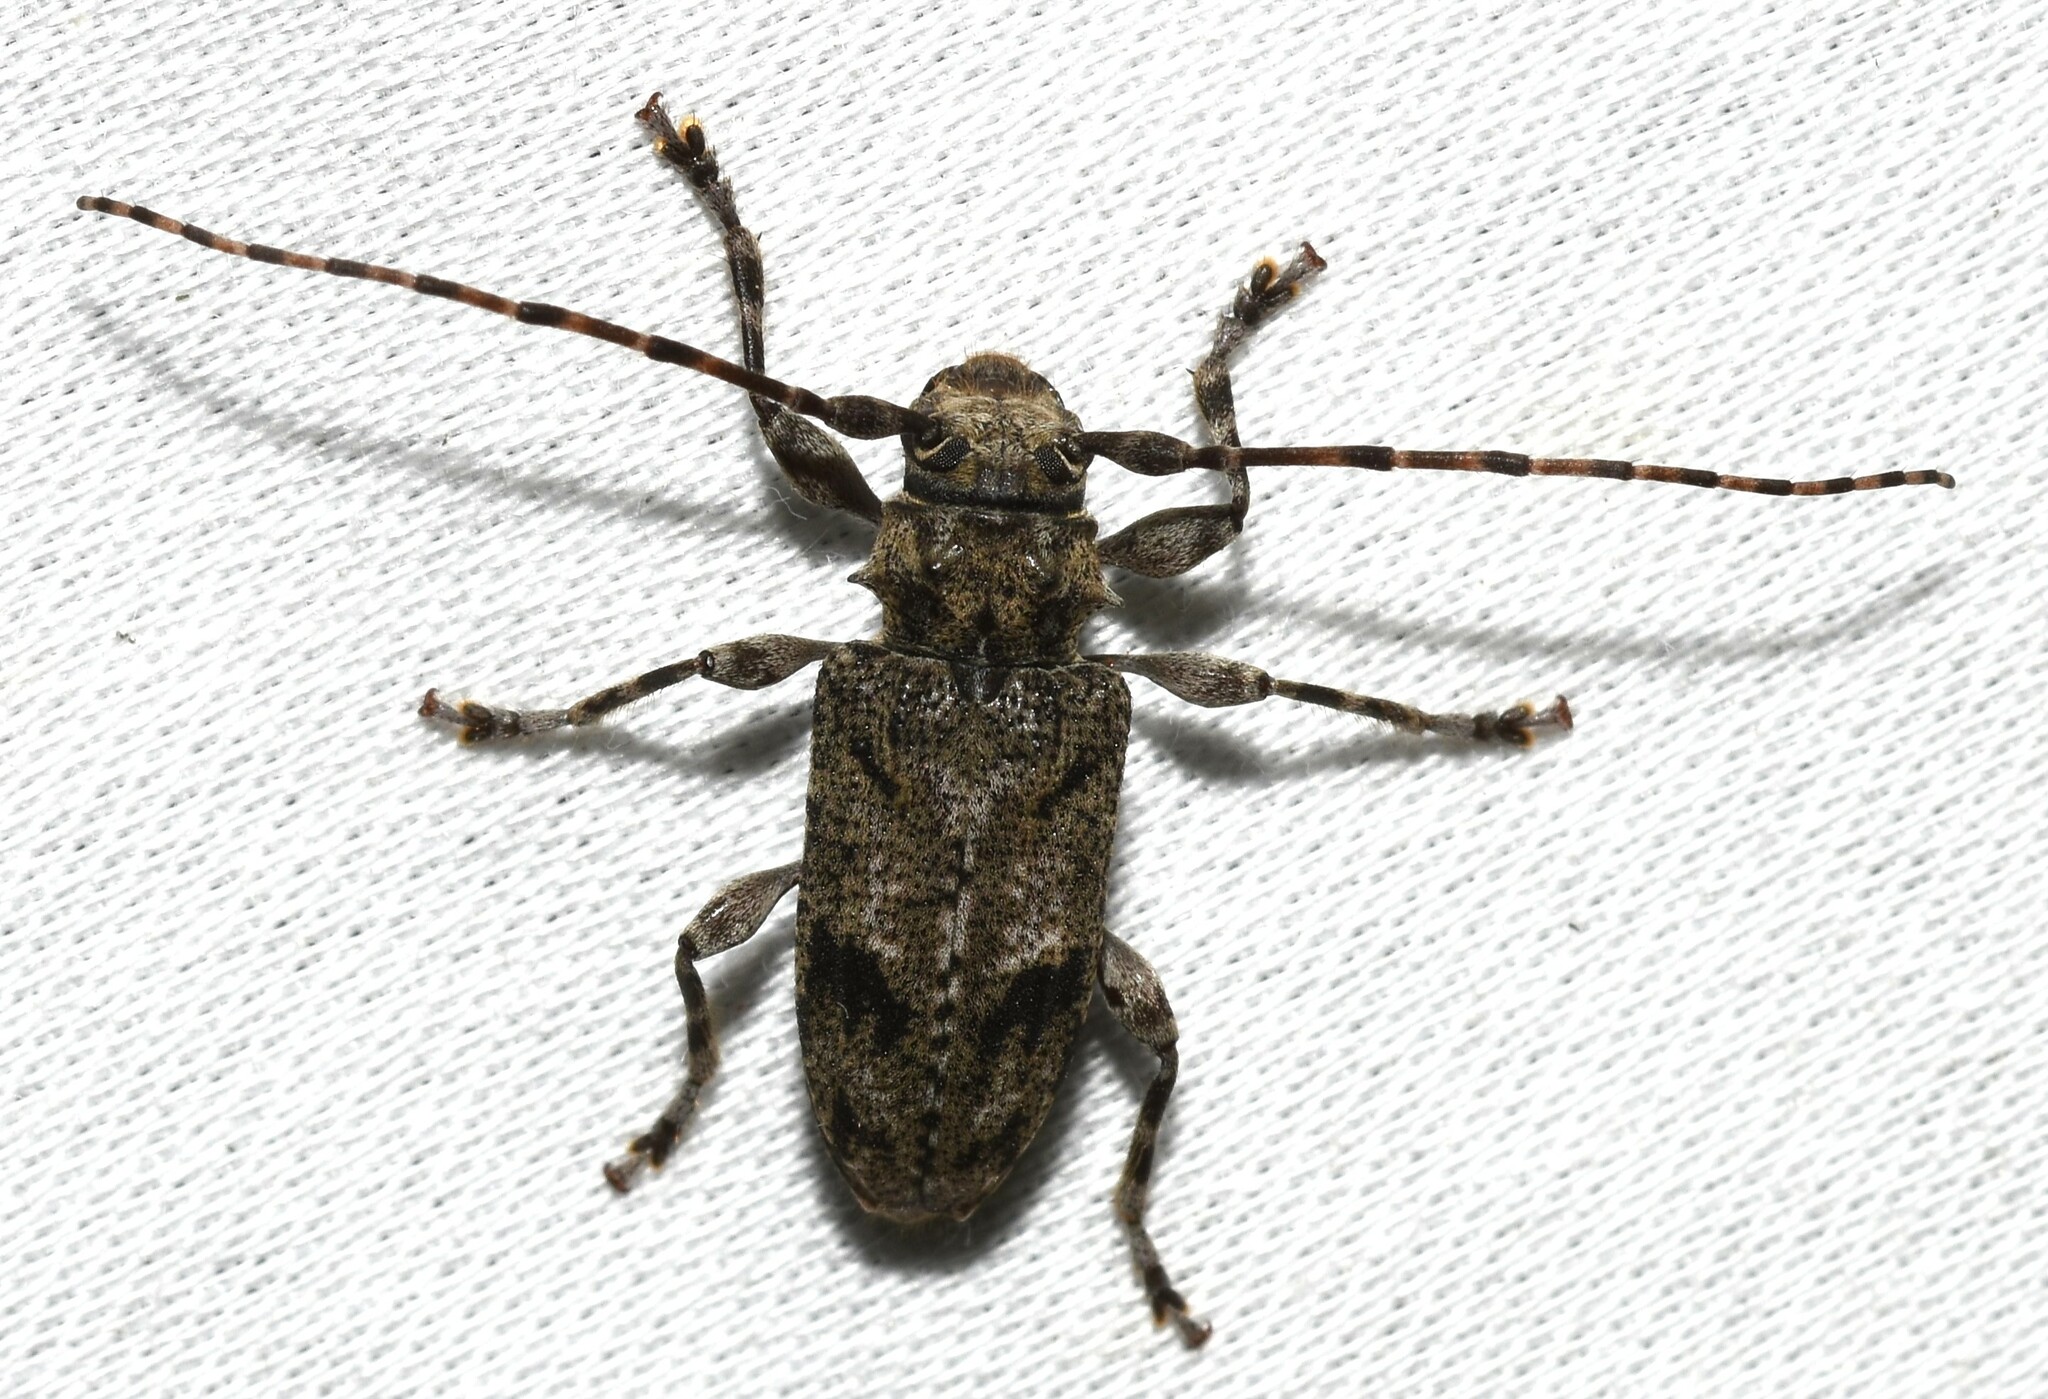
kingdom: Animalia
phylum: Arthropoda
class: Insecta
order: Coleoptera
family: Cerambycidae
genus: Aegomorphus
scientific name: Aegomorphus modestus
